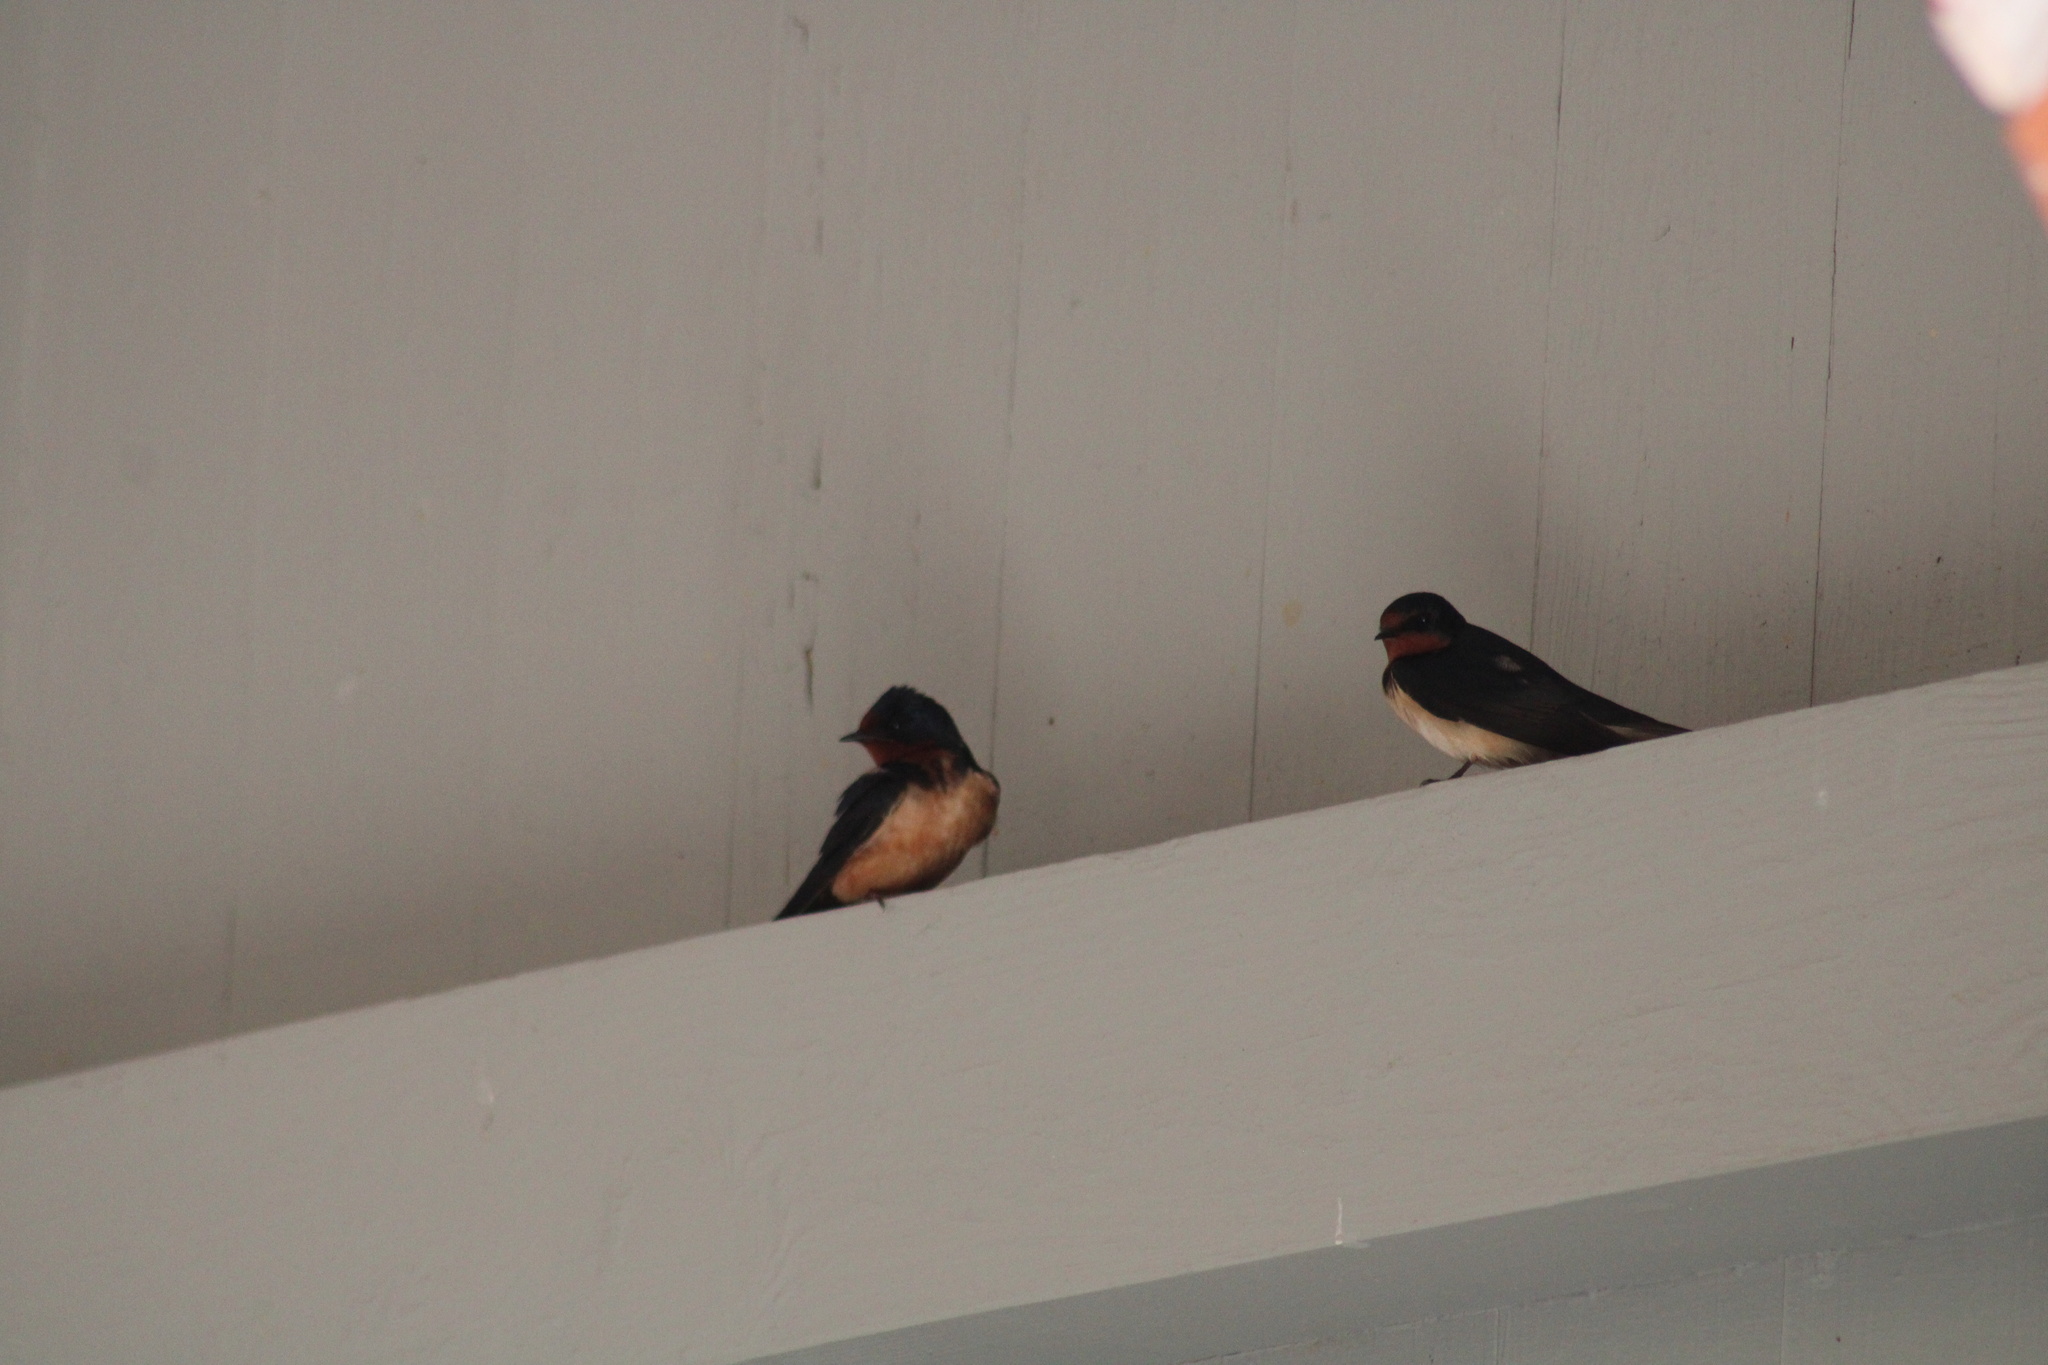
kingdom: Animalia
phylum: Chordata
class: Aves
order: Passeriformes
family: Hirundinidae
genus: Hirundo
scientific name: Hirundo rustica
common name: Barn swallow
